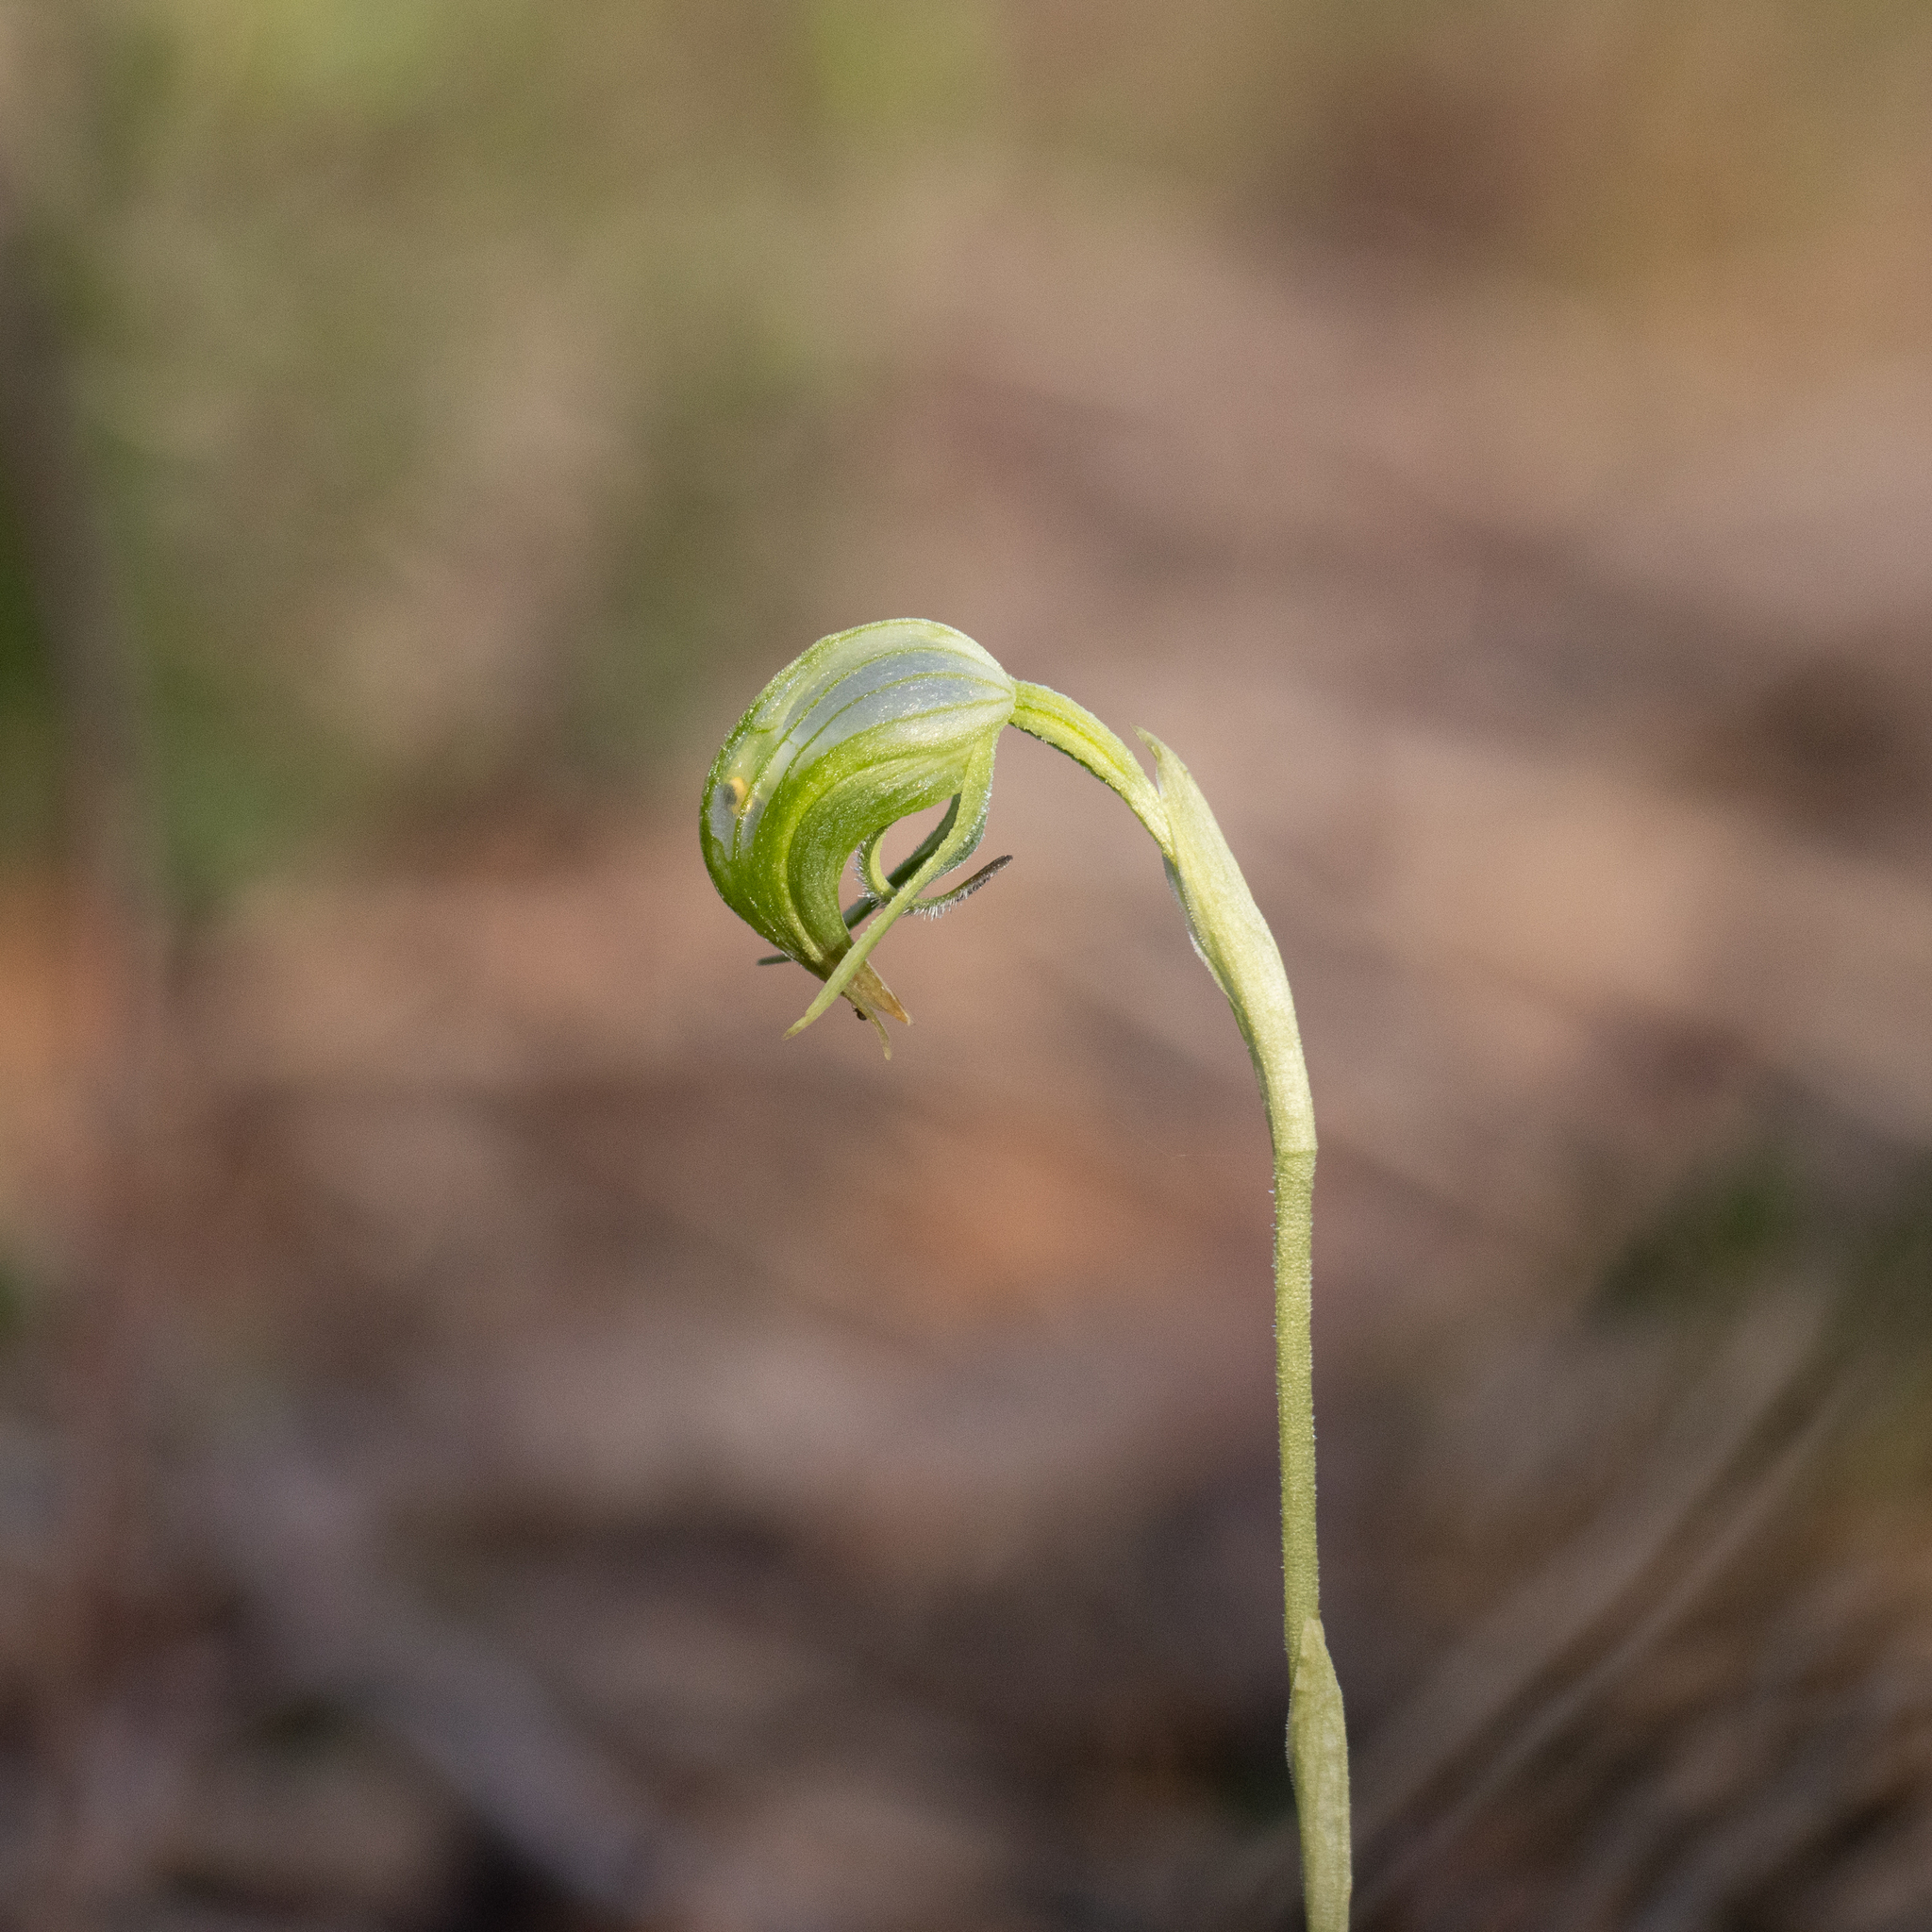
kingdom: Plantae
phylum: Tracheophyta
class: Liliopsida
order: Asparagales
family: Orchidaceae
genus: Pterostylis
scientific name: Pterostylis nutans
